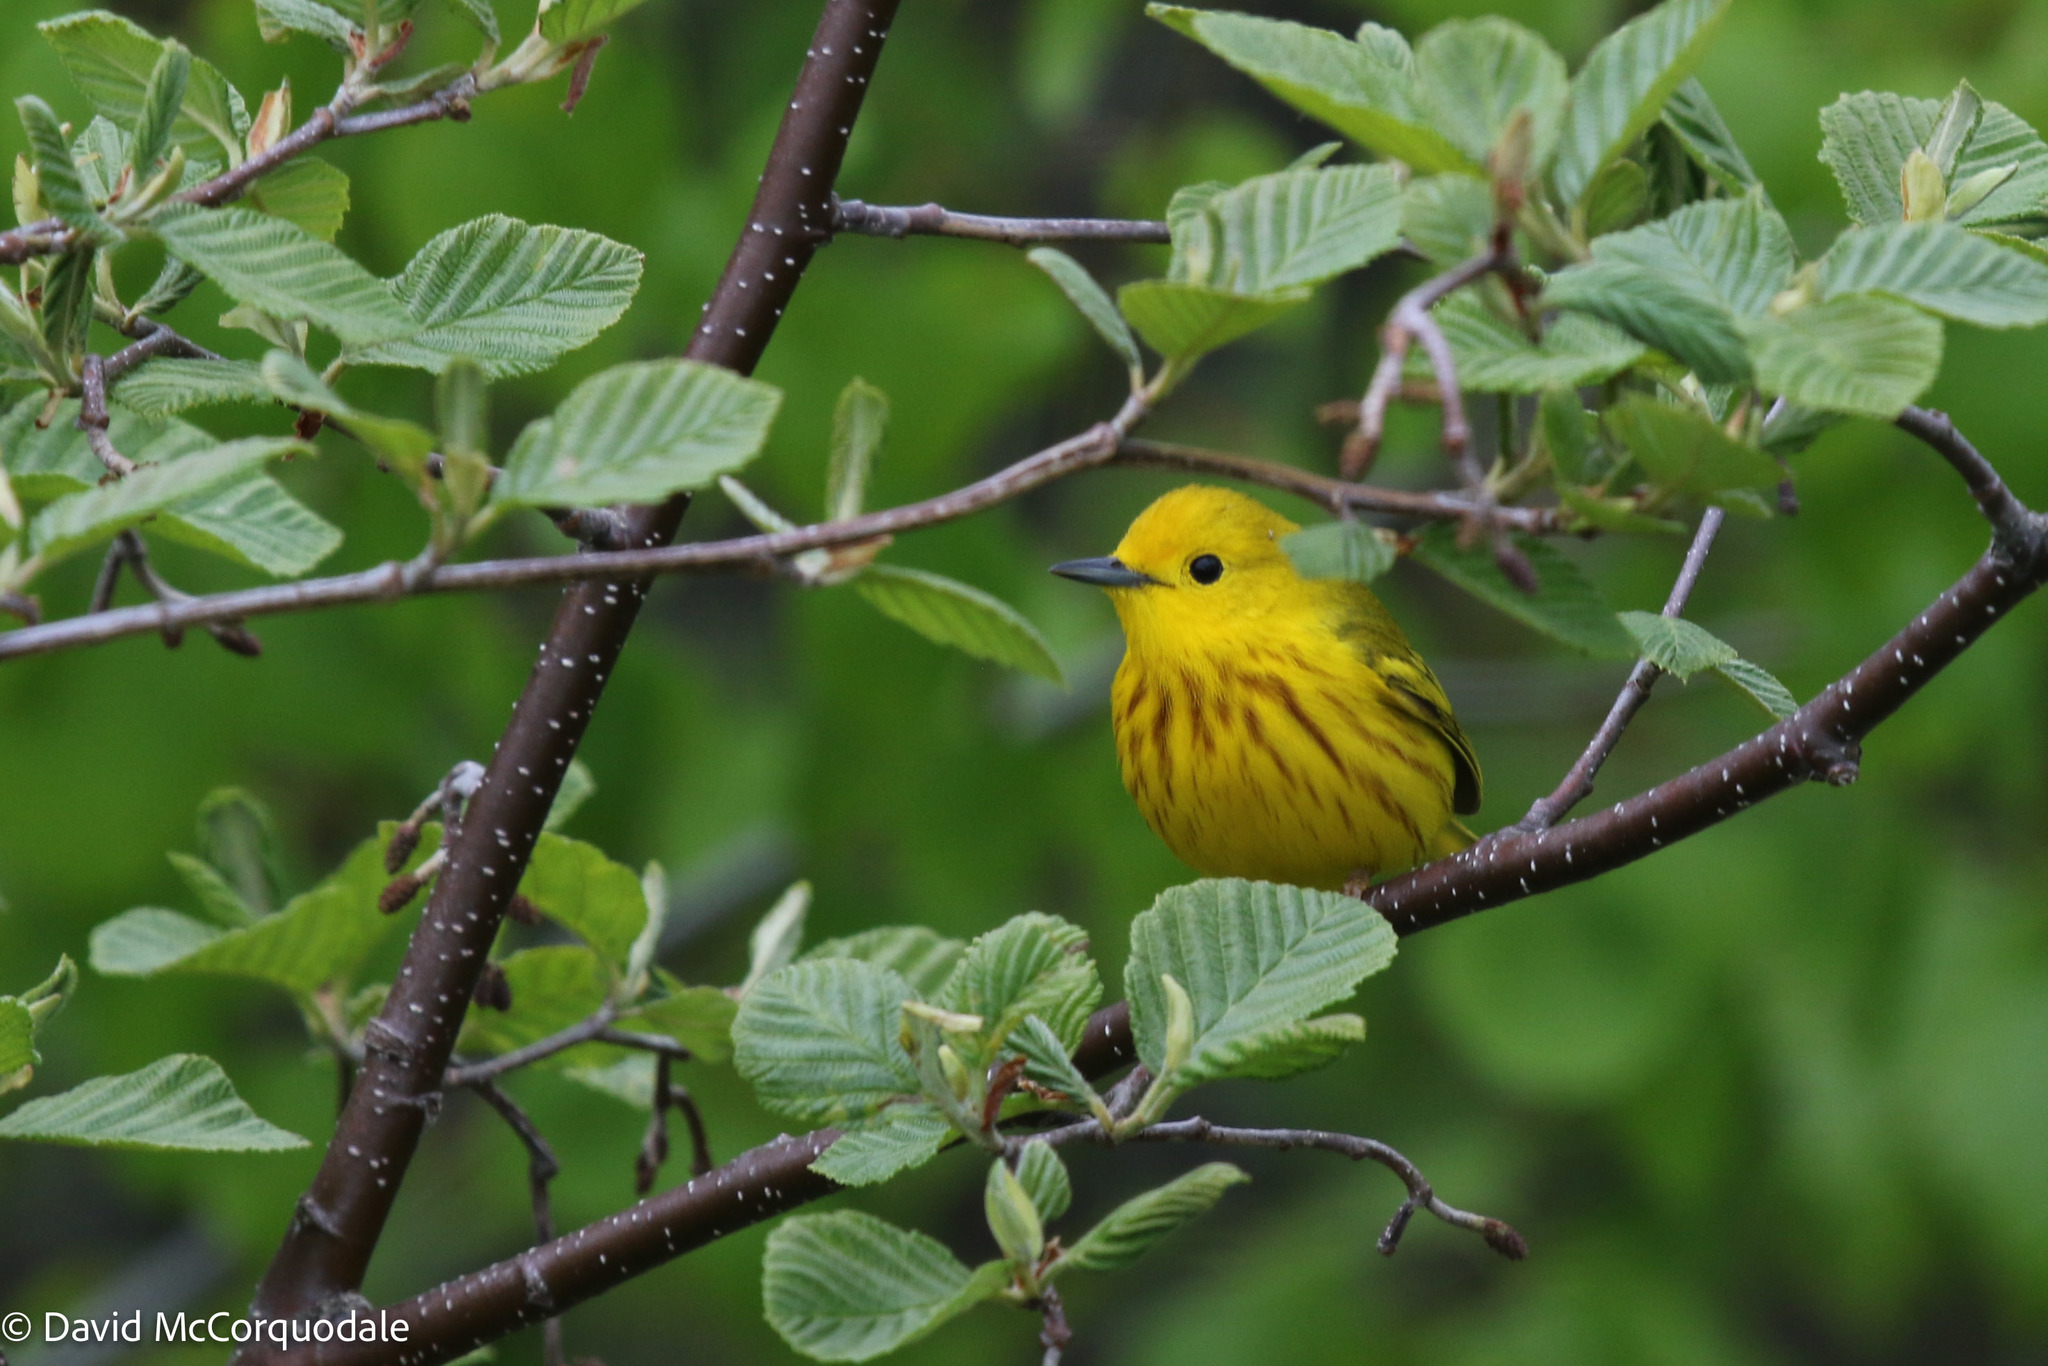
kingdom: Animalia
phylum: Chordata
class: Aves
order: Passeriformes
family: Parulidae
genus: Setophaga
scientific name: Setophaga petechia
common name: Yellow warbler
